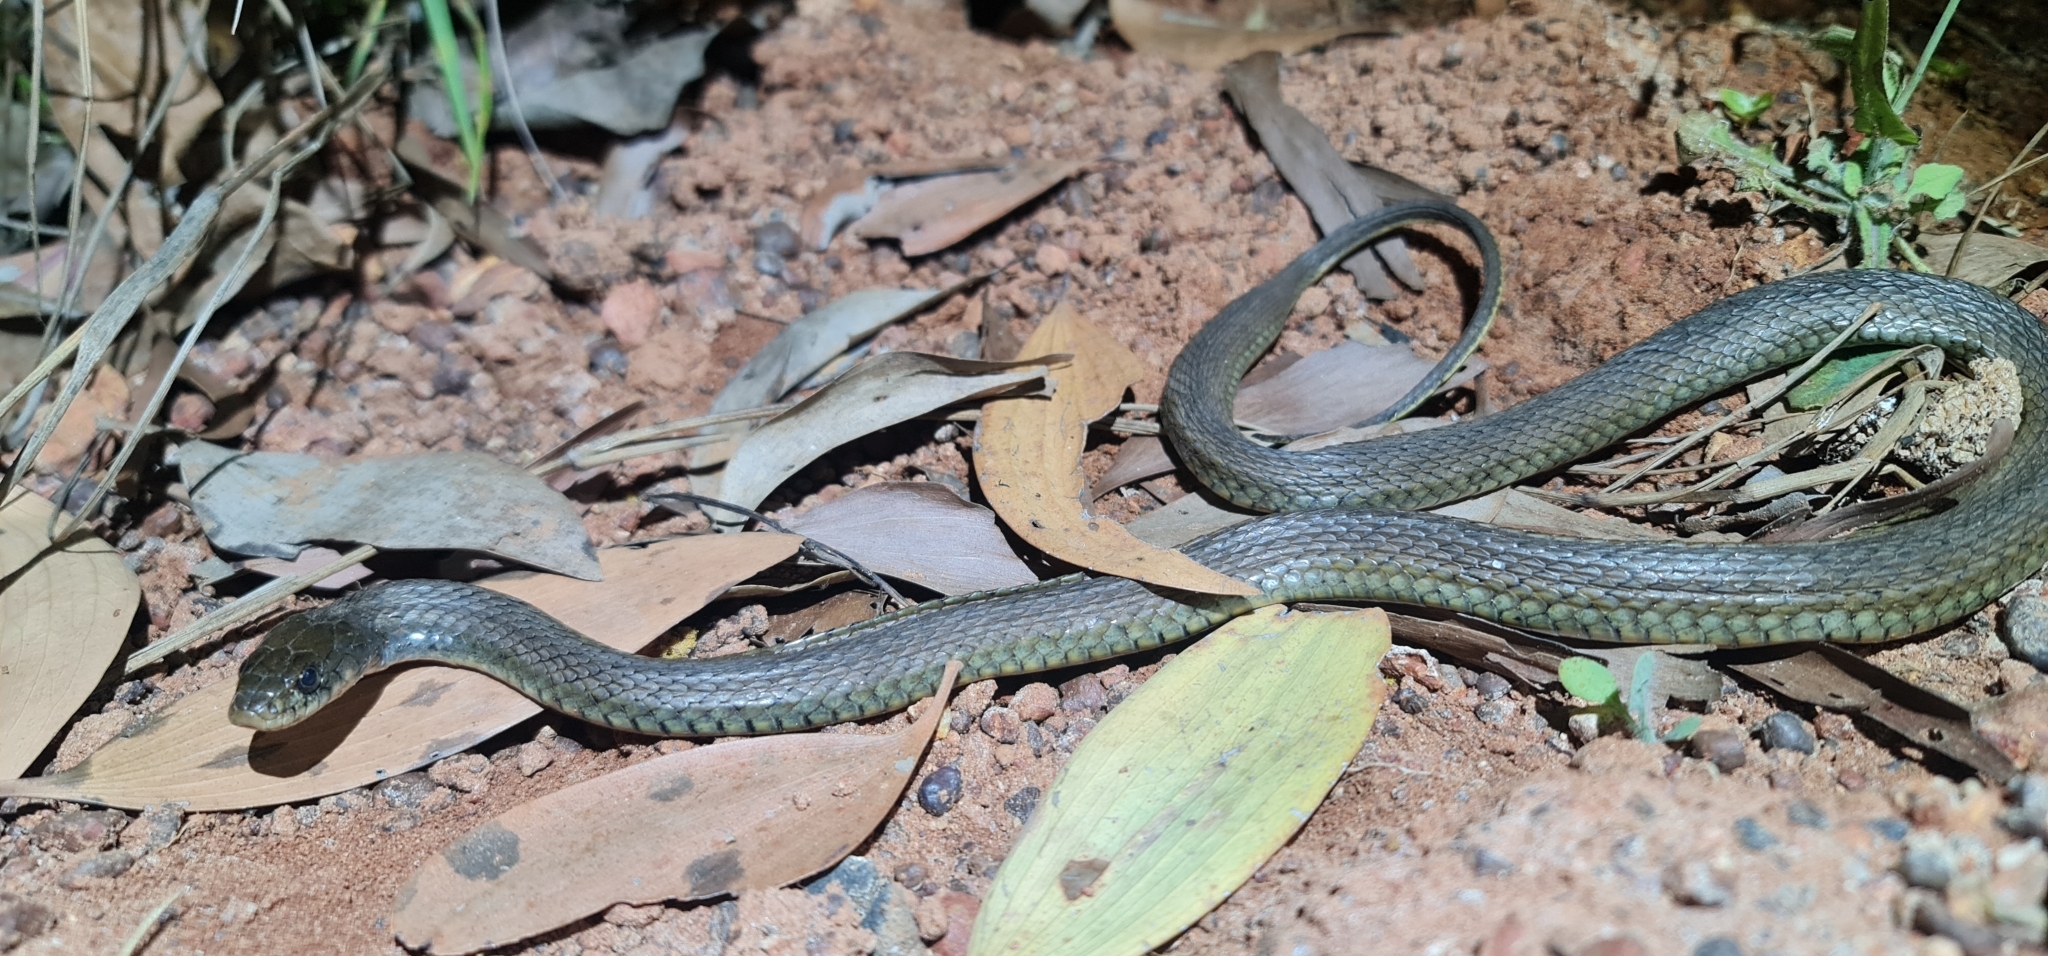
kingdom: Animalia
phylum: Chordata
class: Squamata
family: Colubridae
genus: Tropidonophis
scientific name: Tropidonophis mairii
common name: Common keelback
